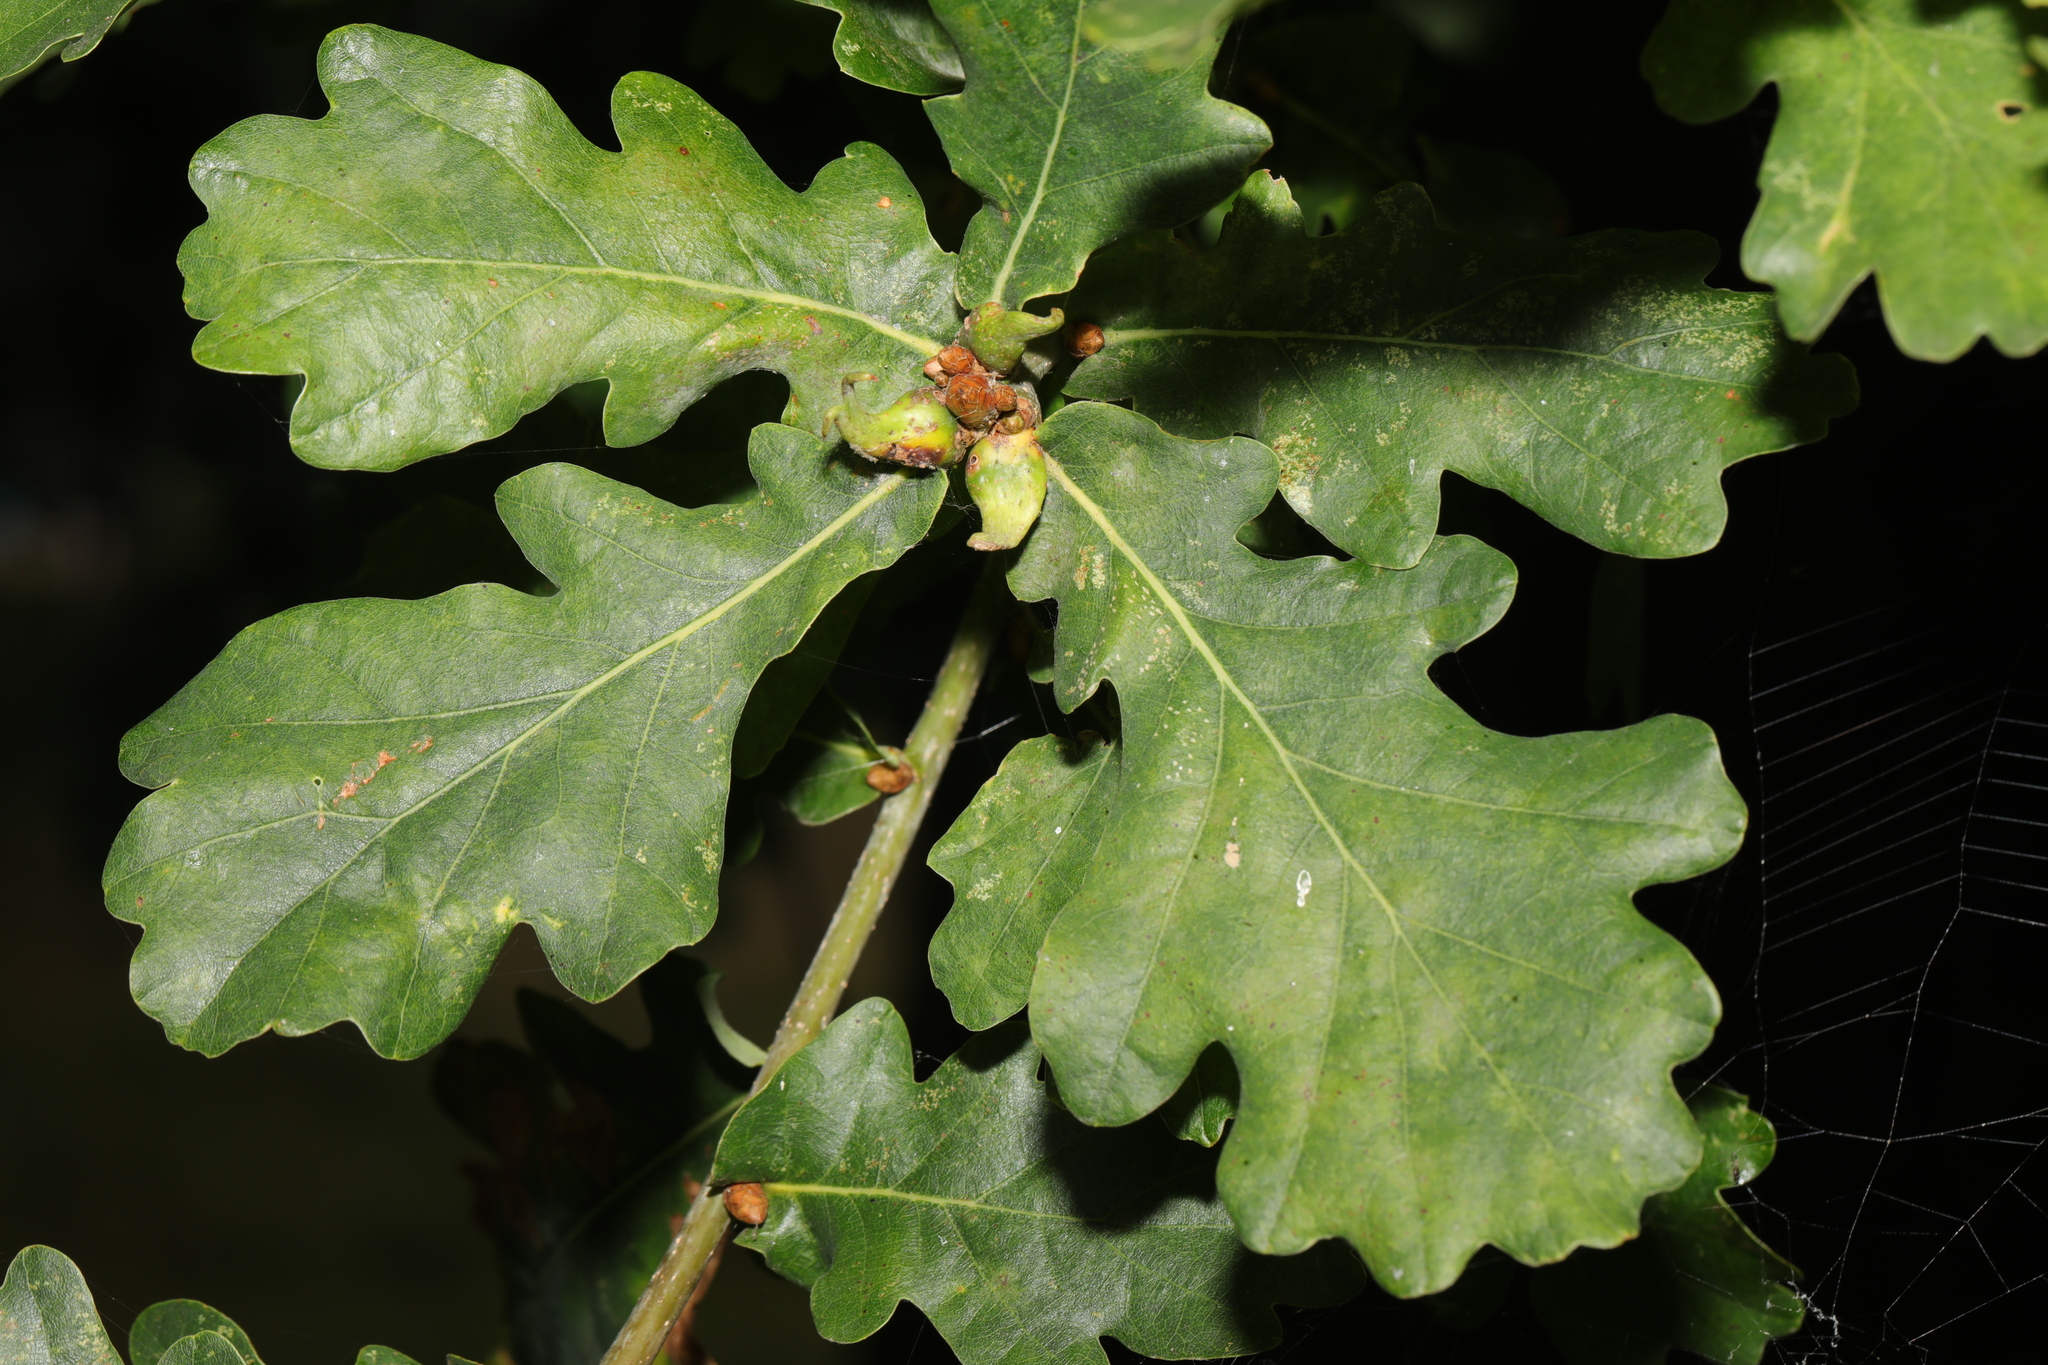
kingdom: Plantae
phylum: Tracheophyta
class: Magnoliopsida
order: Fagales
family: Fagaceae
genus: Quercus
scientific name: Quercus robur
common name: Pedunculate oak
